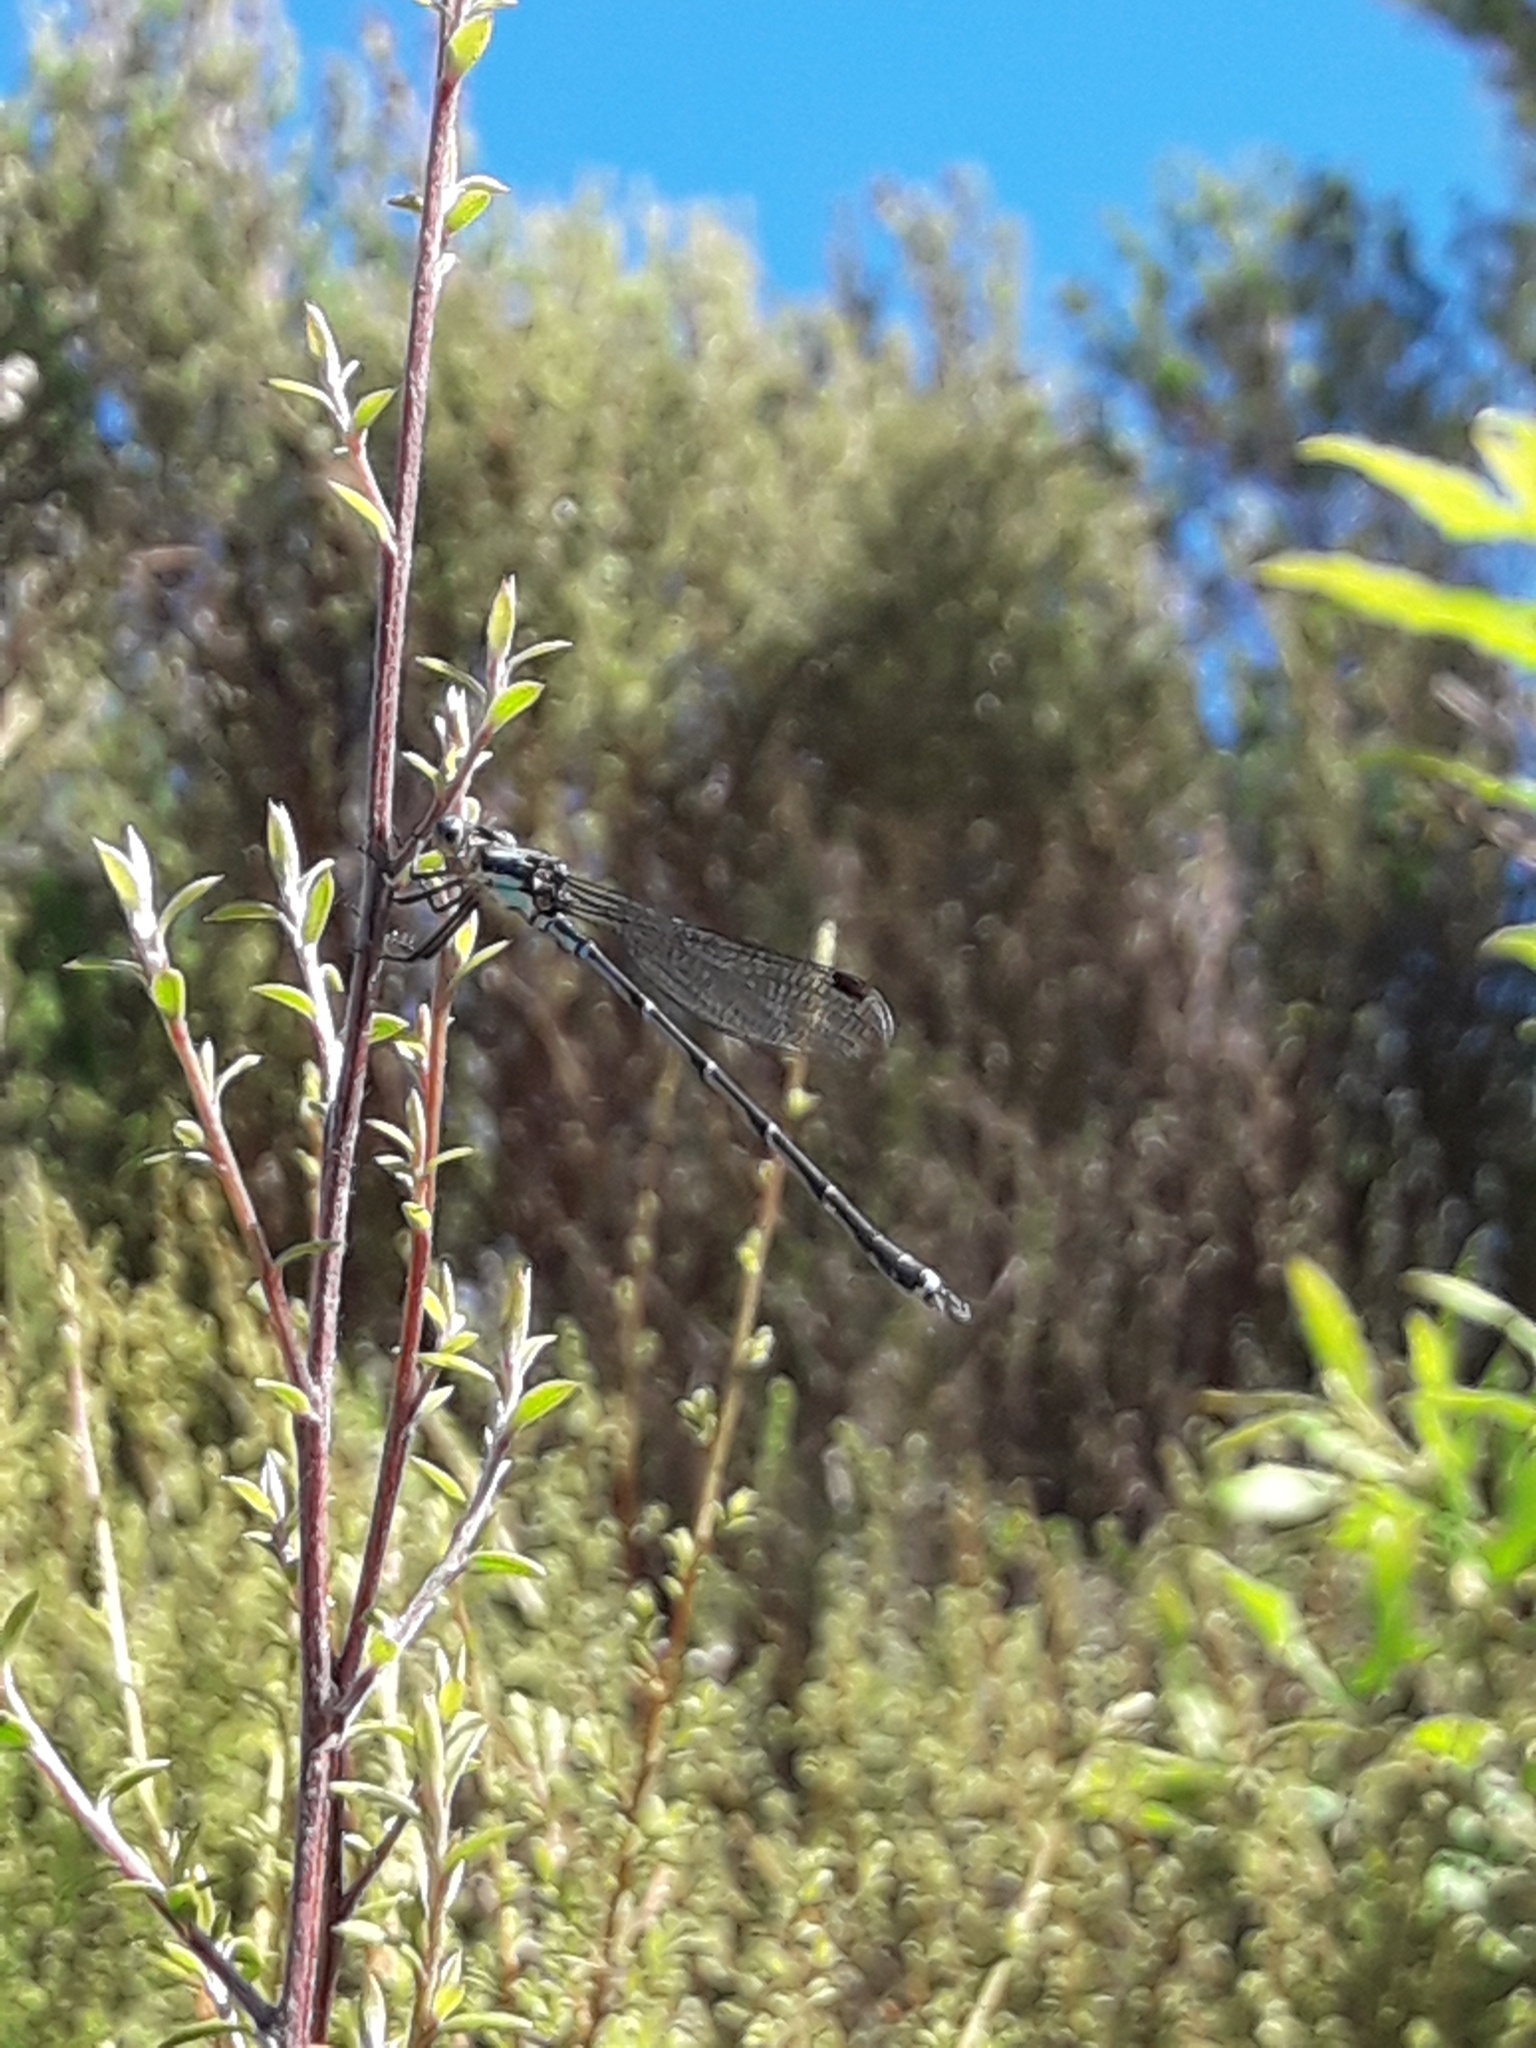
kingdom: Animalia
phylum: Arthropoda
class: Insecta
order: Odonata
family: Lestidae
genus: Austrolestes
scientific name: Austrolestes colensonis
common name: Blue damselfly
